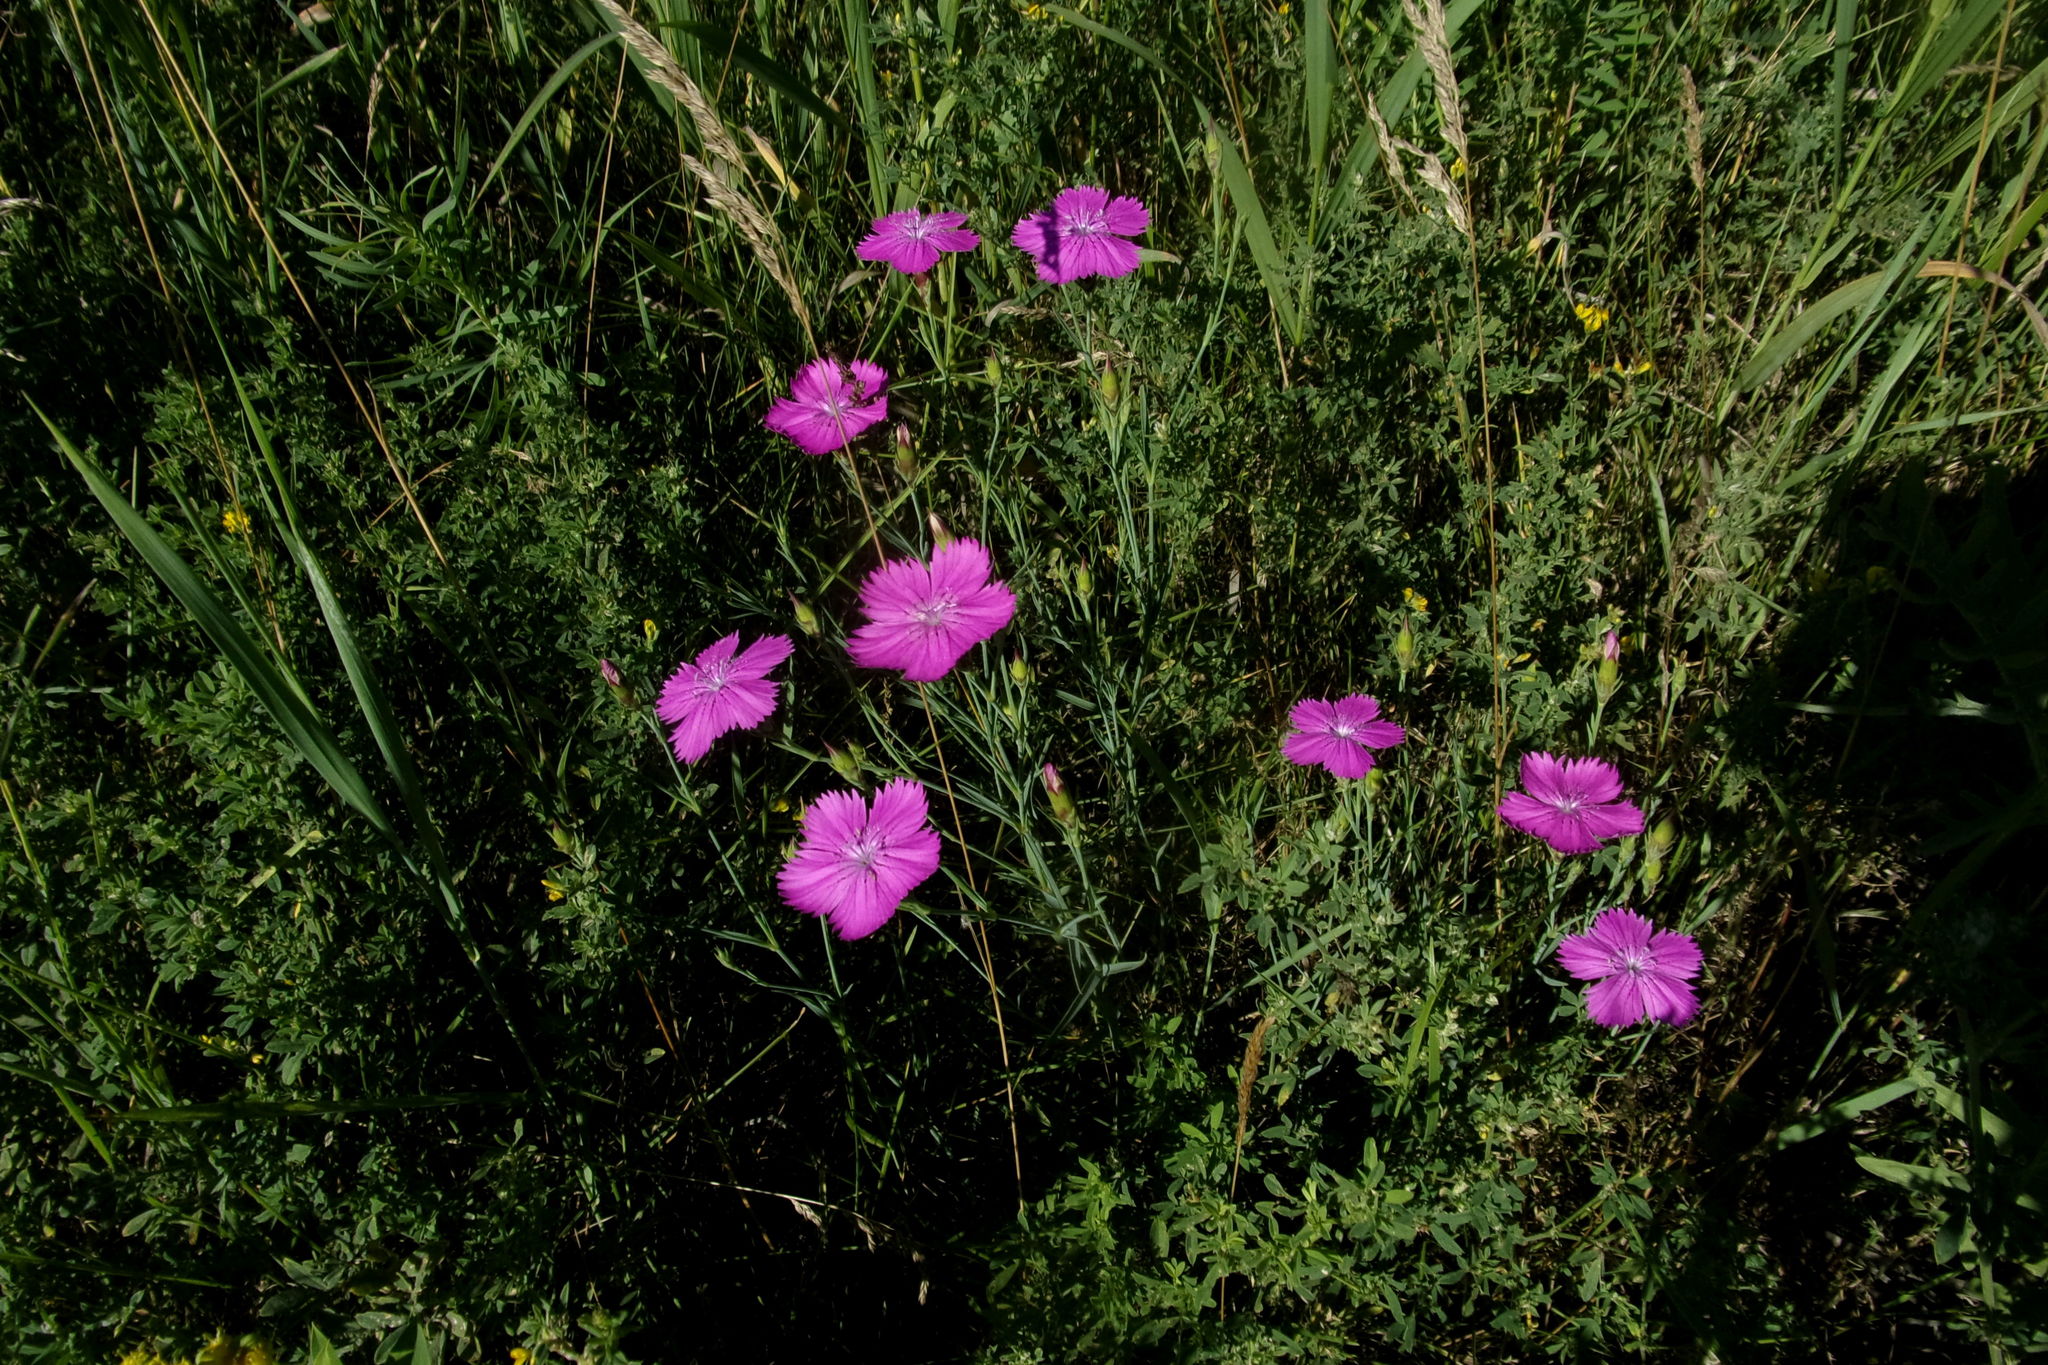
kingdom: Plantae
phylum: Tracheophyta
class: Magnoliopsida
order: Caryophyllales
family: Caryophyllaceae
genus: Dianthus
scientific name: Dianthus chinensis
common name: Rainbow pink
